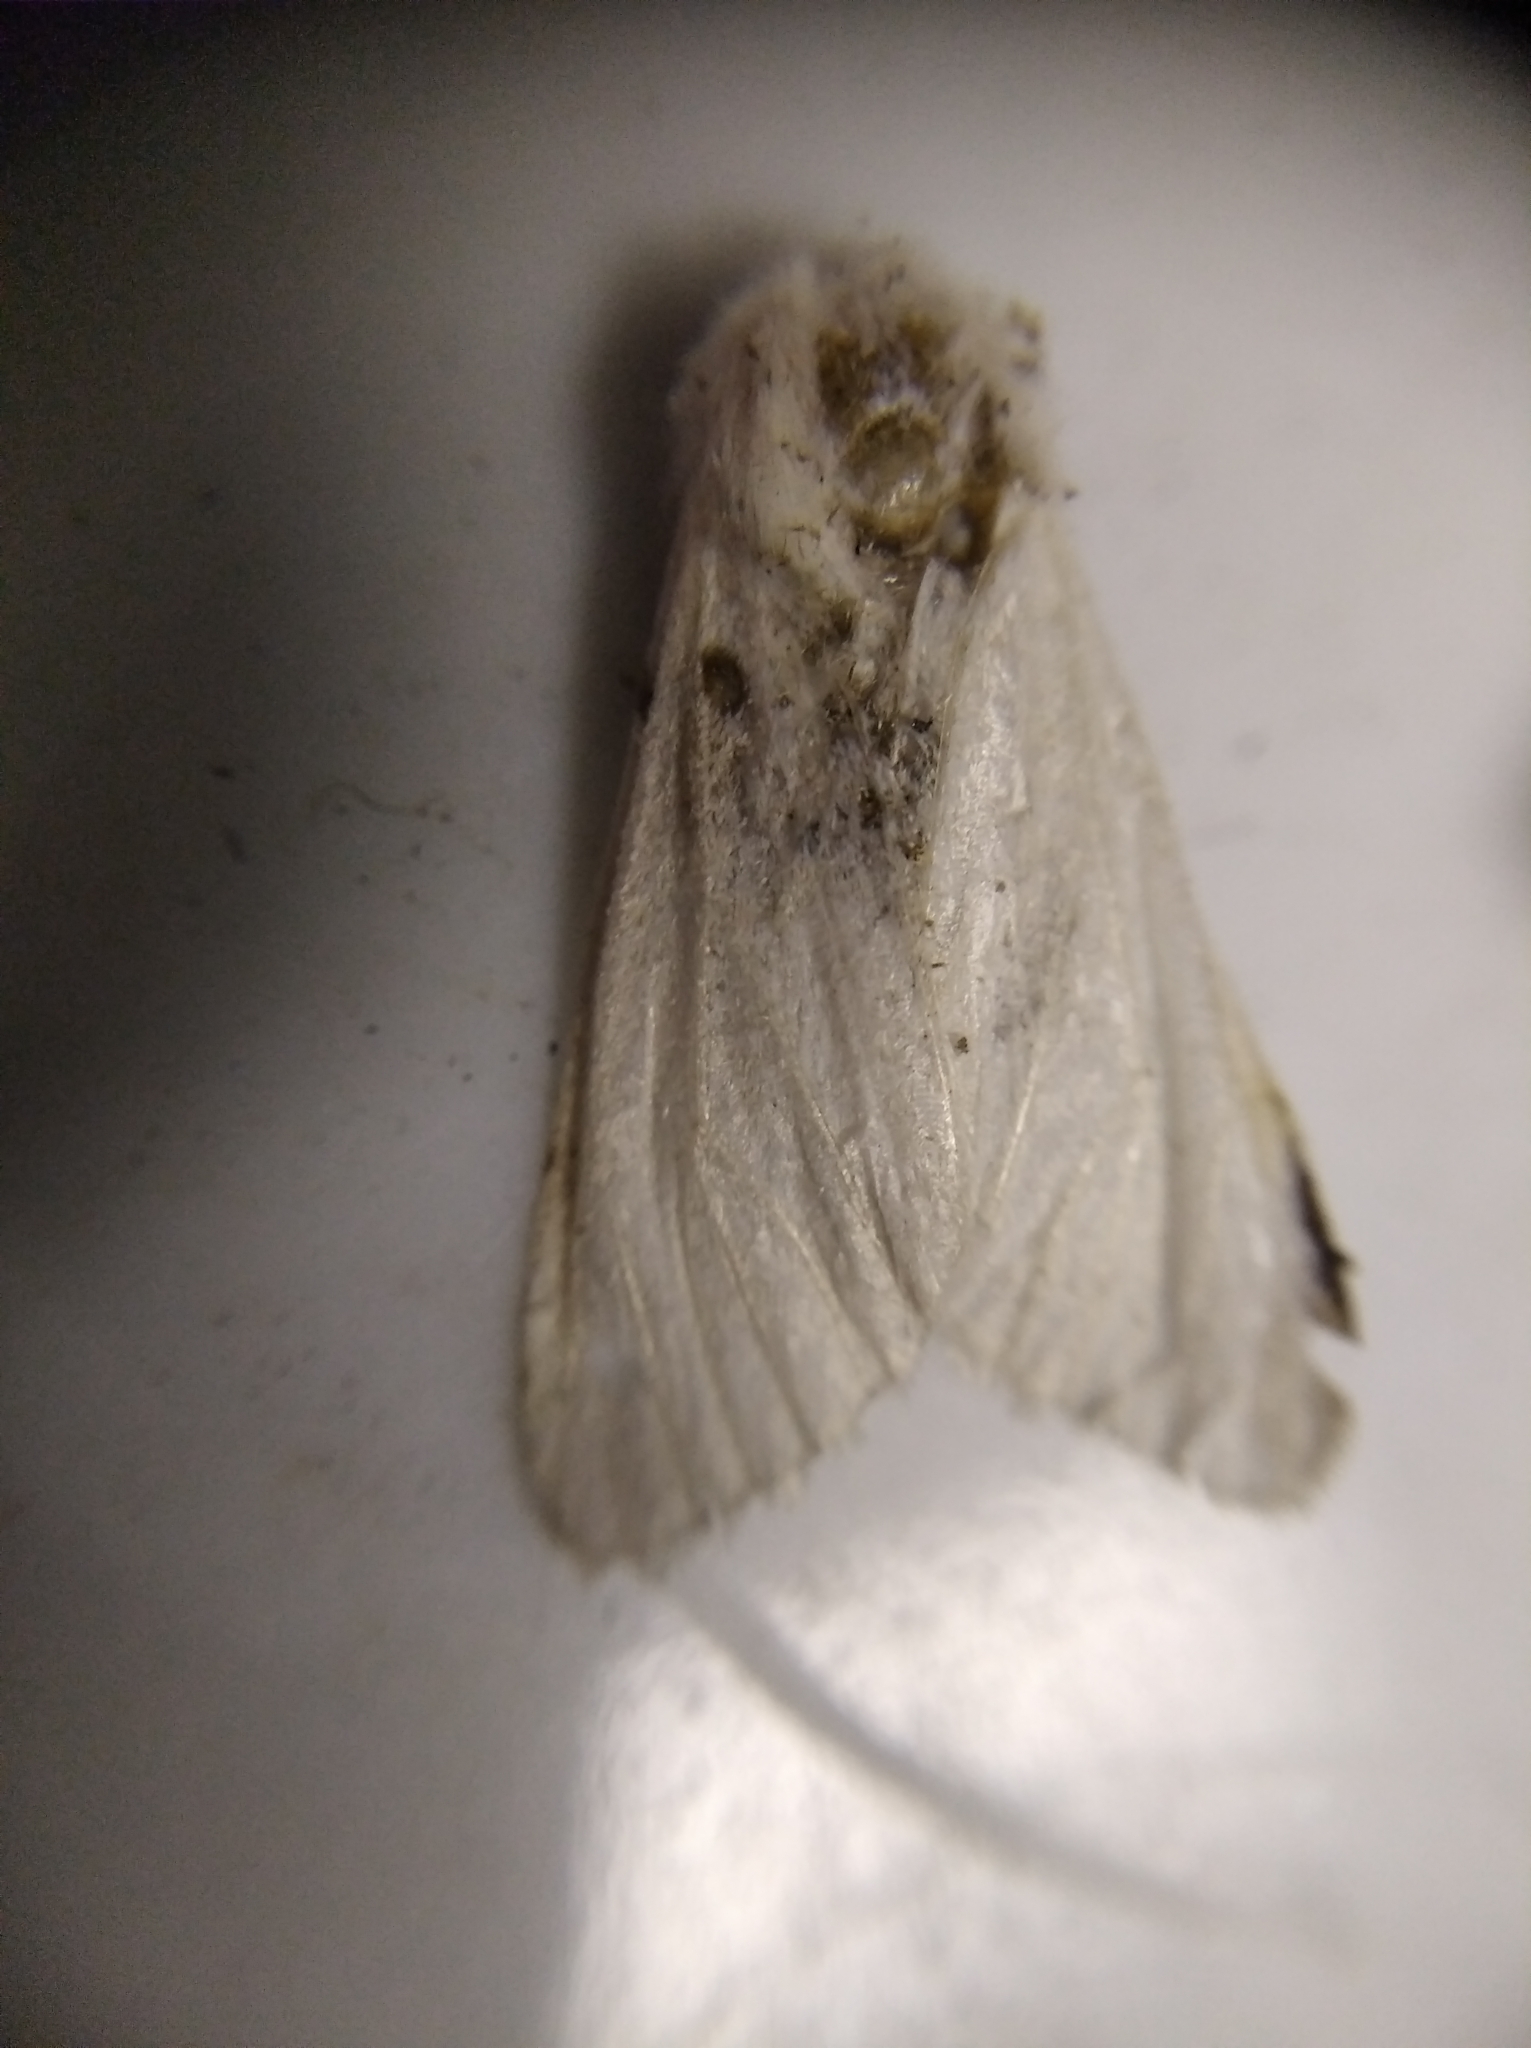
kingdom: Animalia
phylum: Arthropoda
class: Insecta
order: Lepidoptera
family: Erebidae
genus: Hyphantria
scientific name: Hyphantria cunea
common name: American white moth
